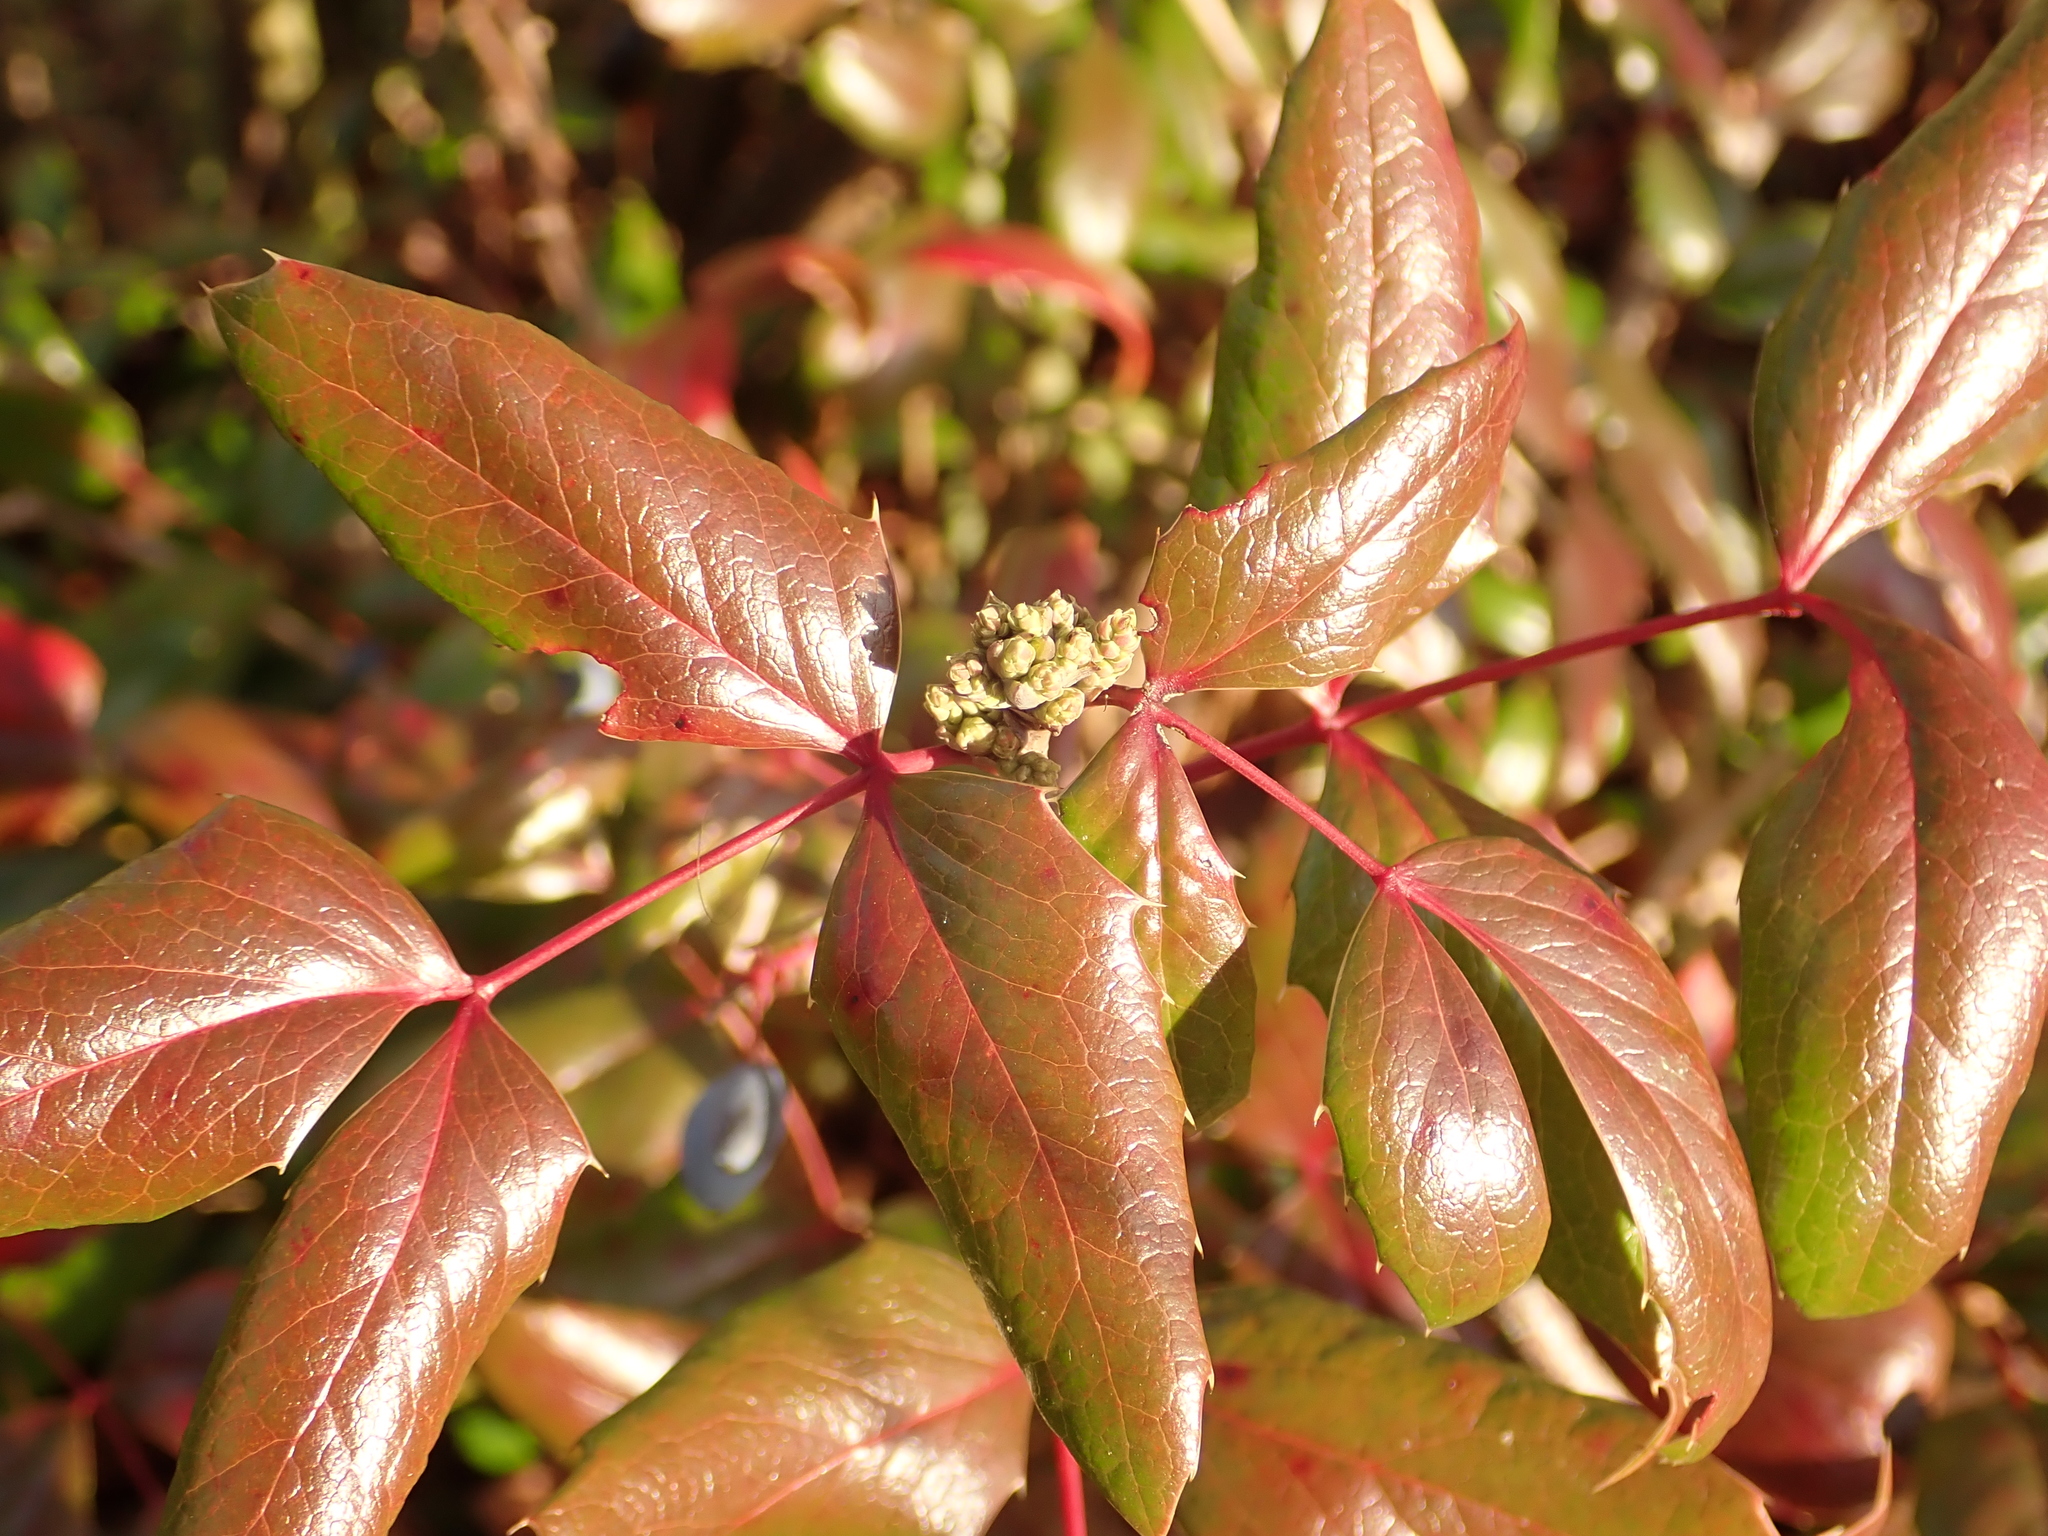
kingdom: Plantae
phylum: Tracheophyta
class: Magnoliopsida
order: Ranunculales
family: Berberidaceae
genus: Mahonia
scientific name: Mahonia aquifolium
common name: Oregon-grape
